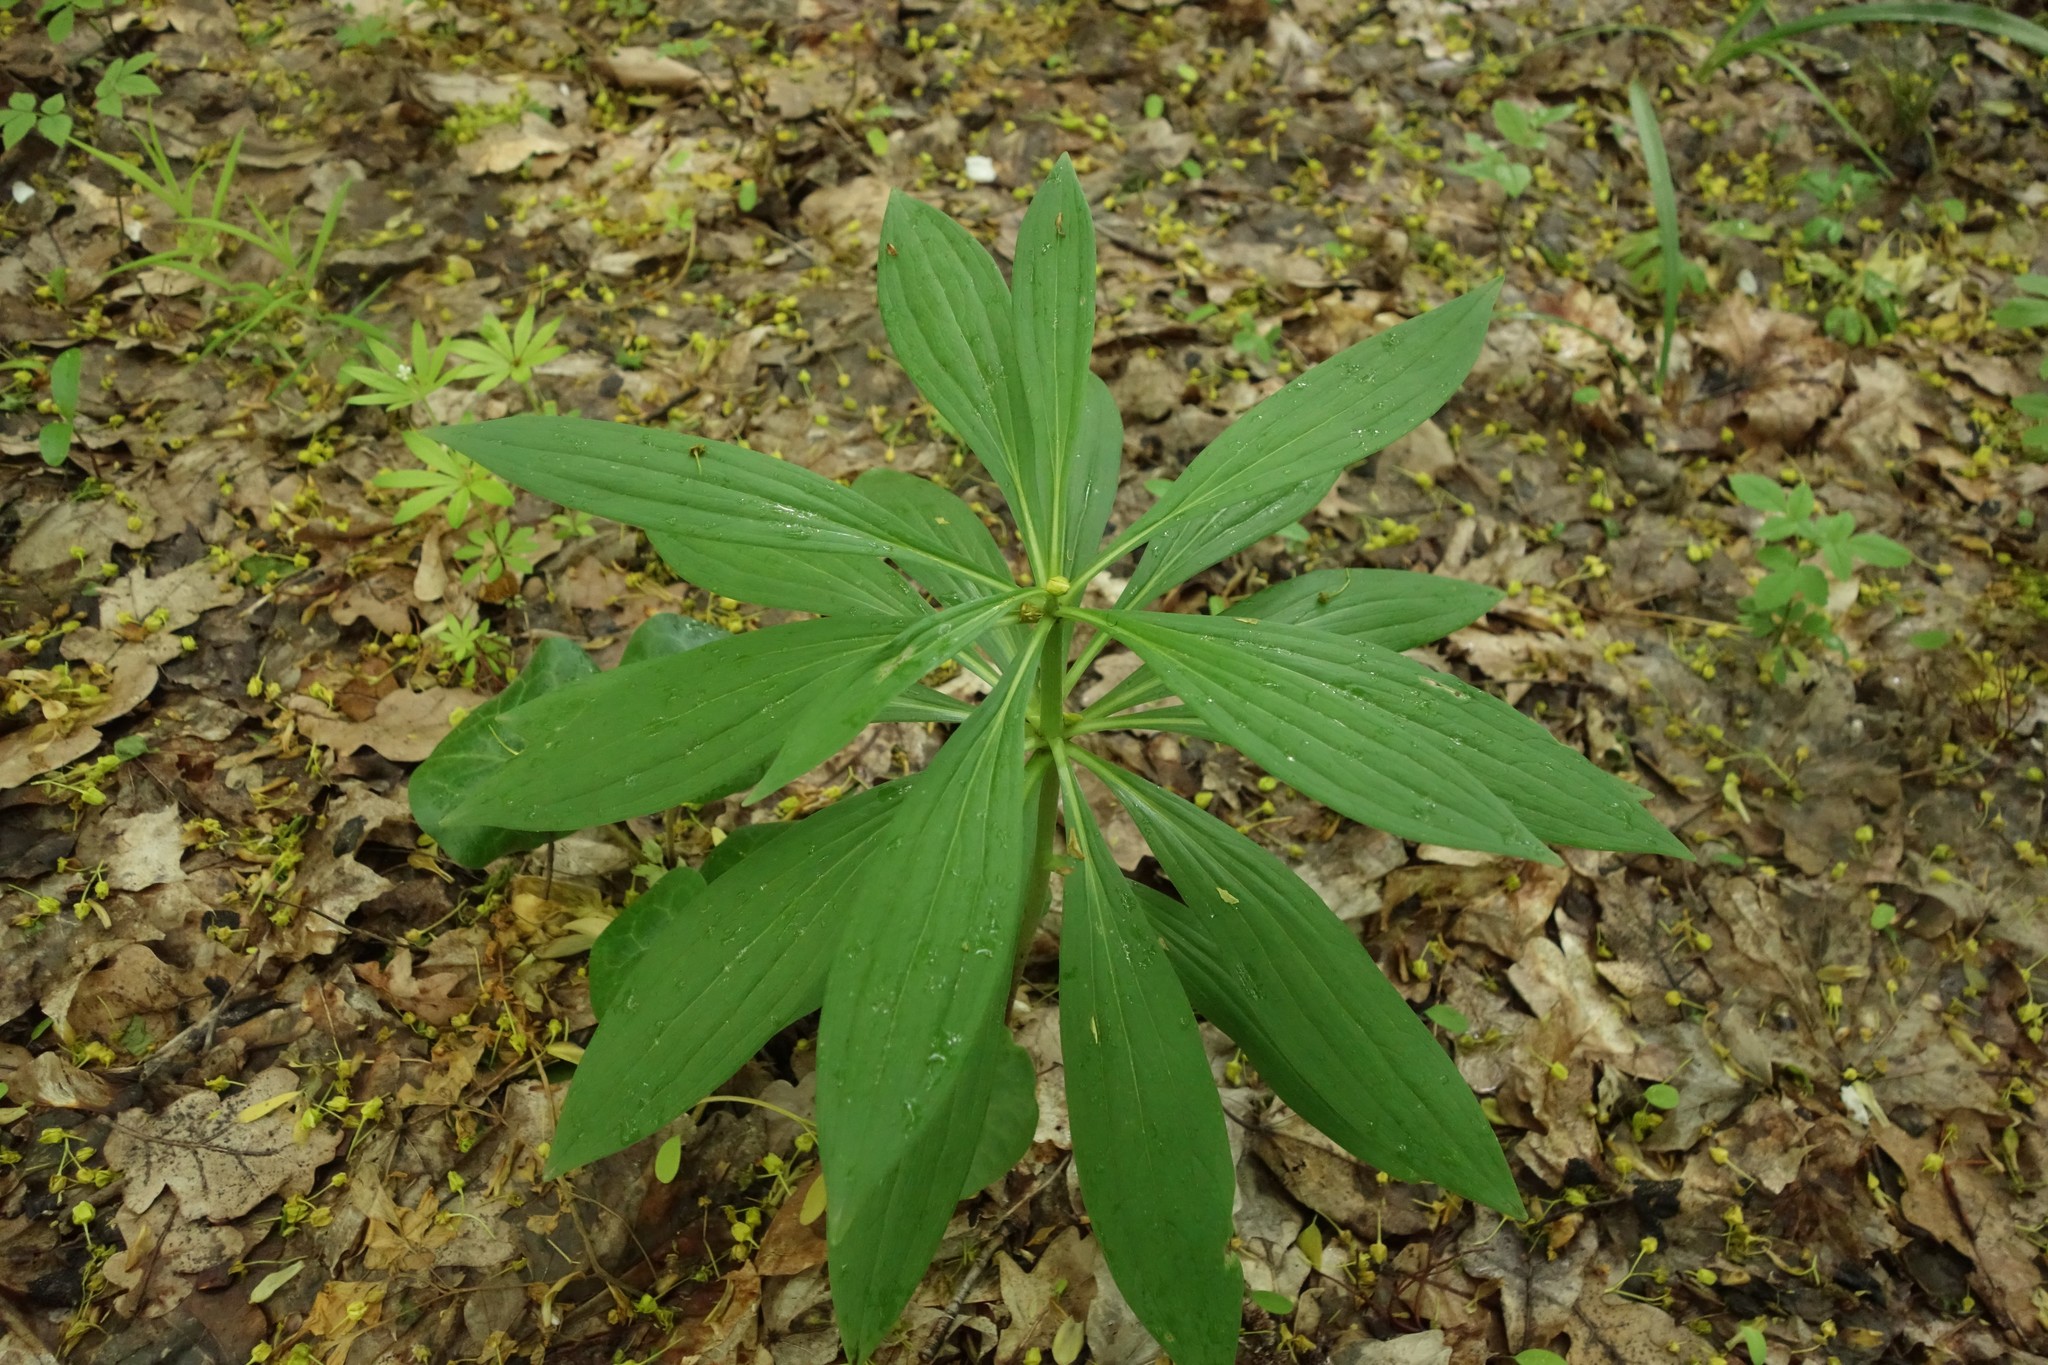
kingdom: Plantae
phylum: Tracheophyta
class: Liliopsida
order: Liliales
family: Liliaceae
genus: Lilium
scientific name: Lilium martagon
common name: Martagon lily
